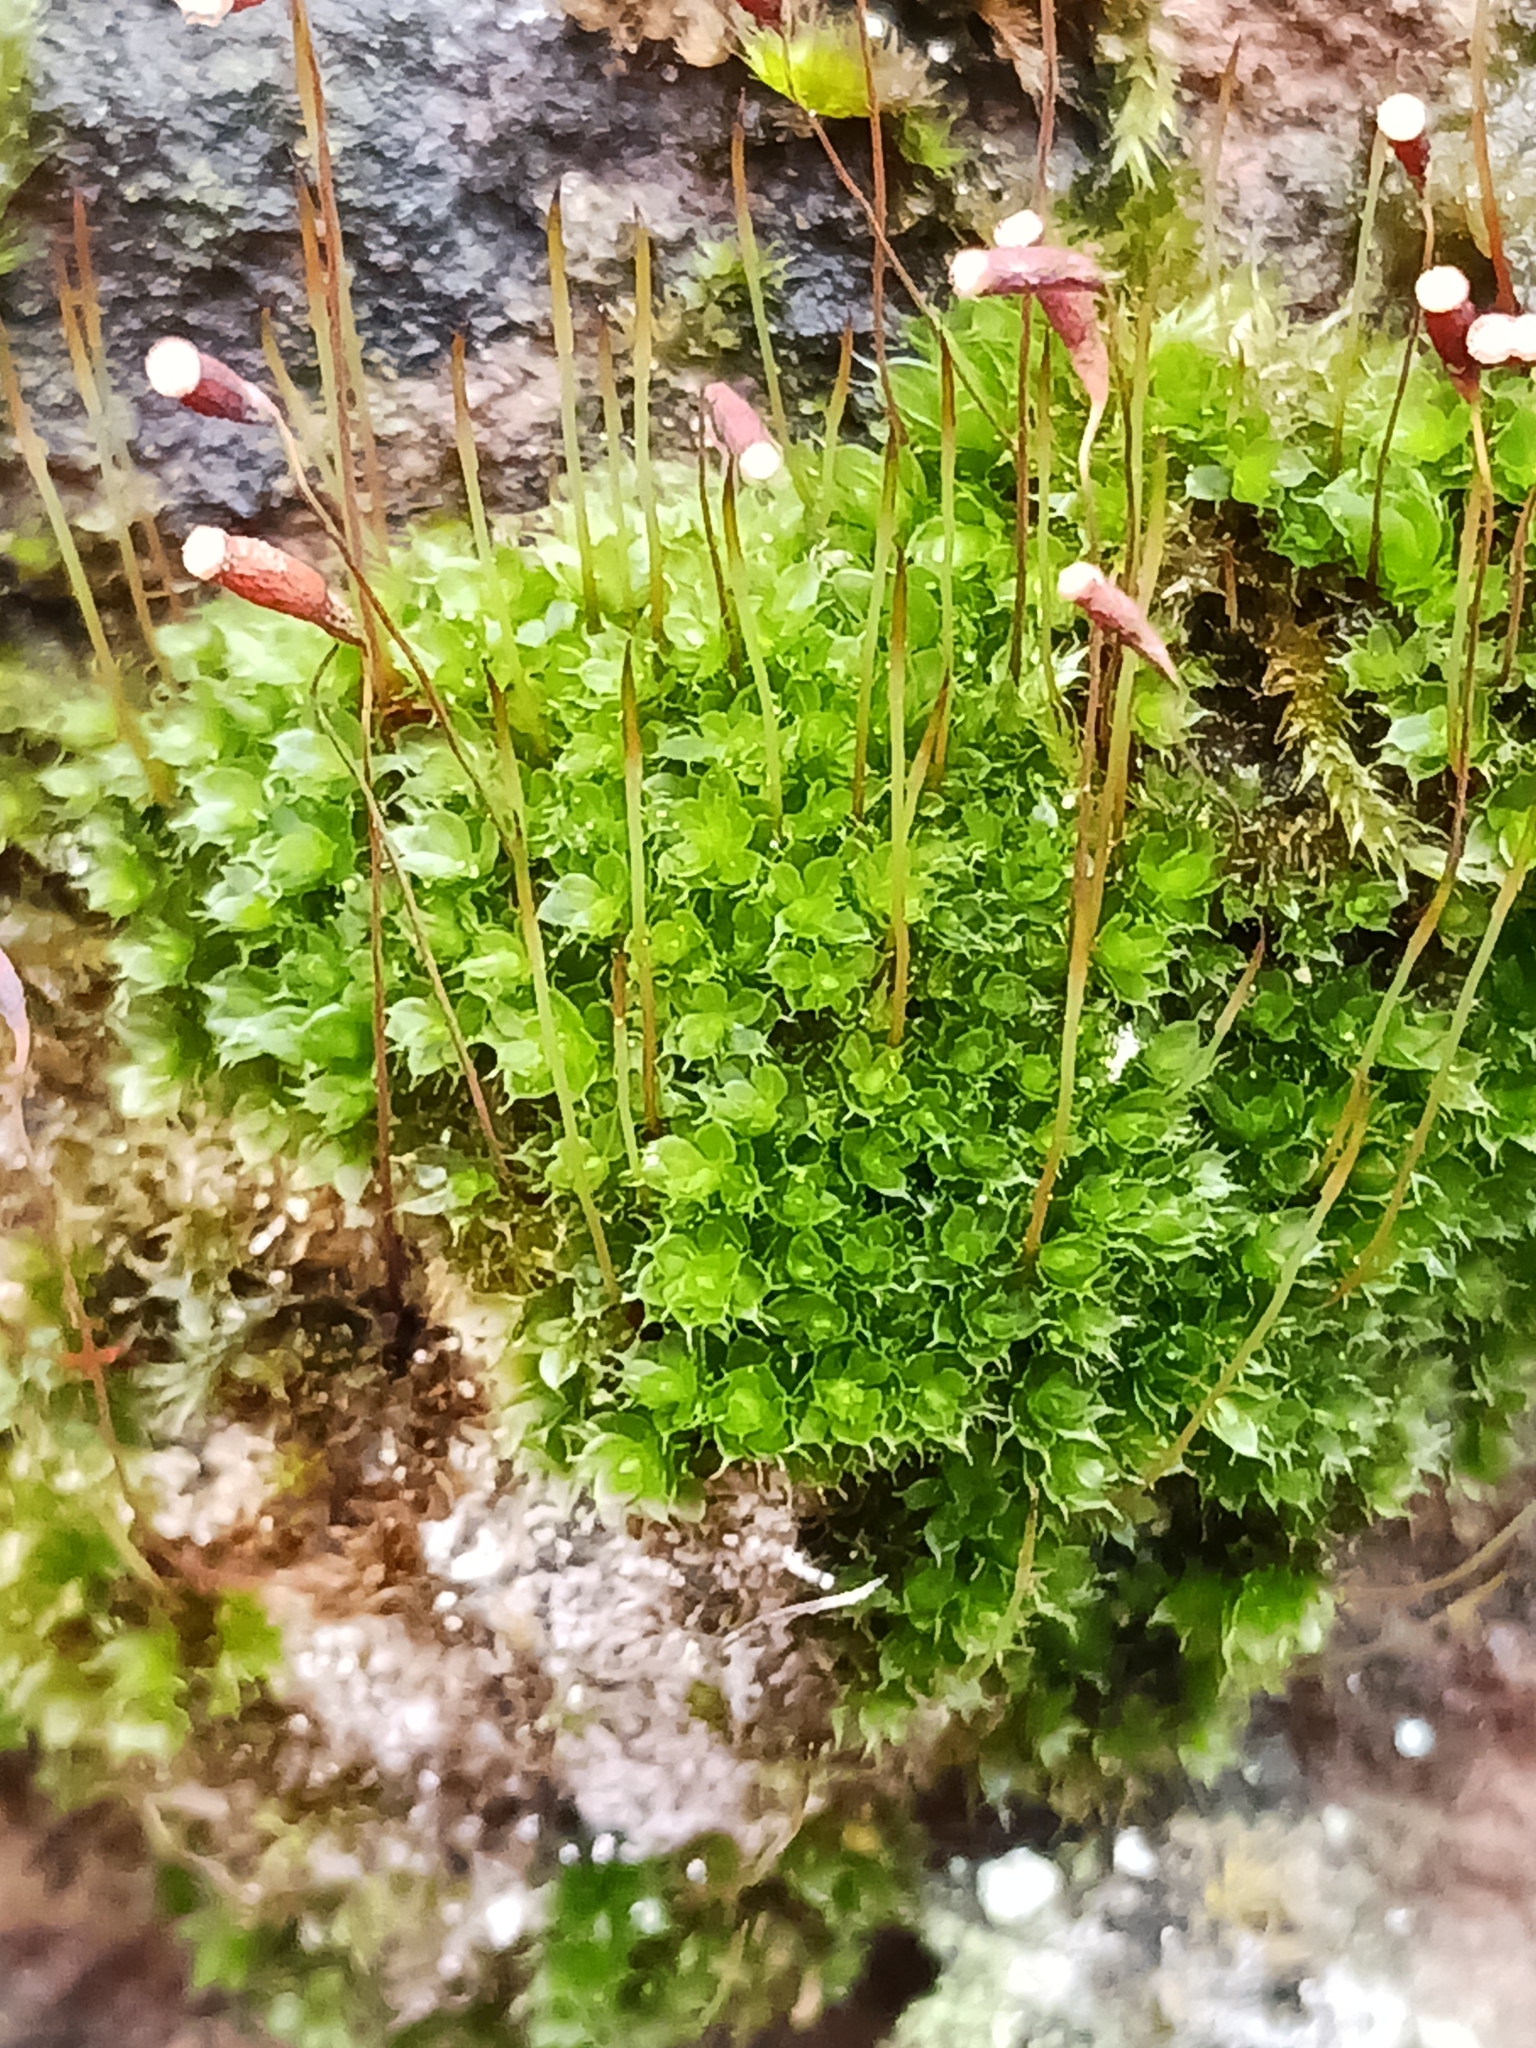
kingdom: Plantae
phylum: Bryophyta
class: Bryopsida
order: Bryales
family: Bryaceae
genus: Rosulabryum
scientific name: Rosulabryum capillare
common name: Capillary thread-moss
